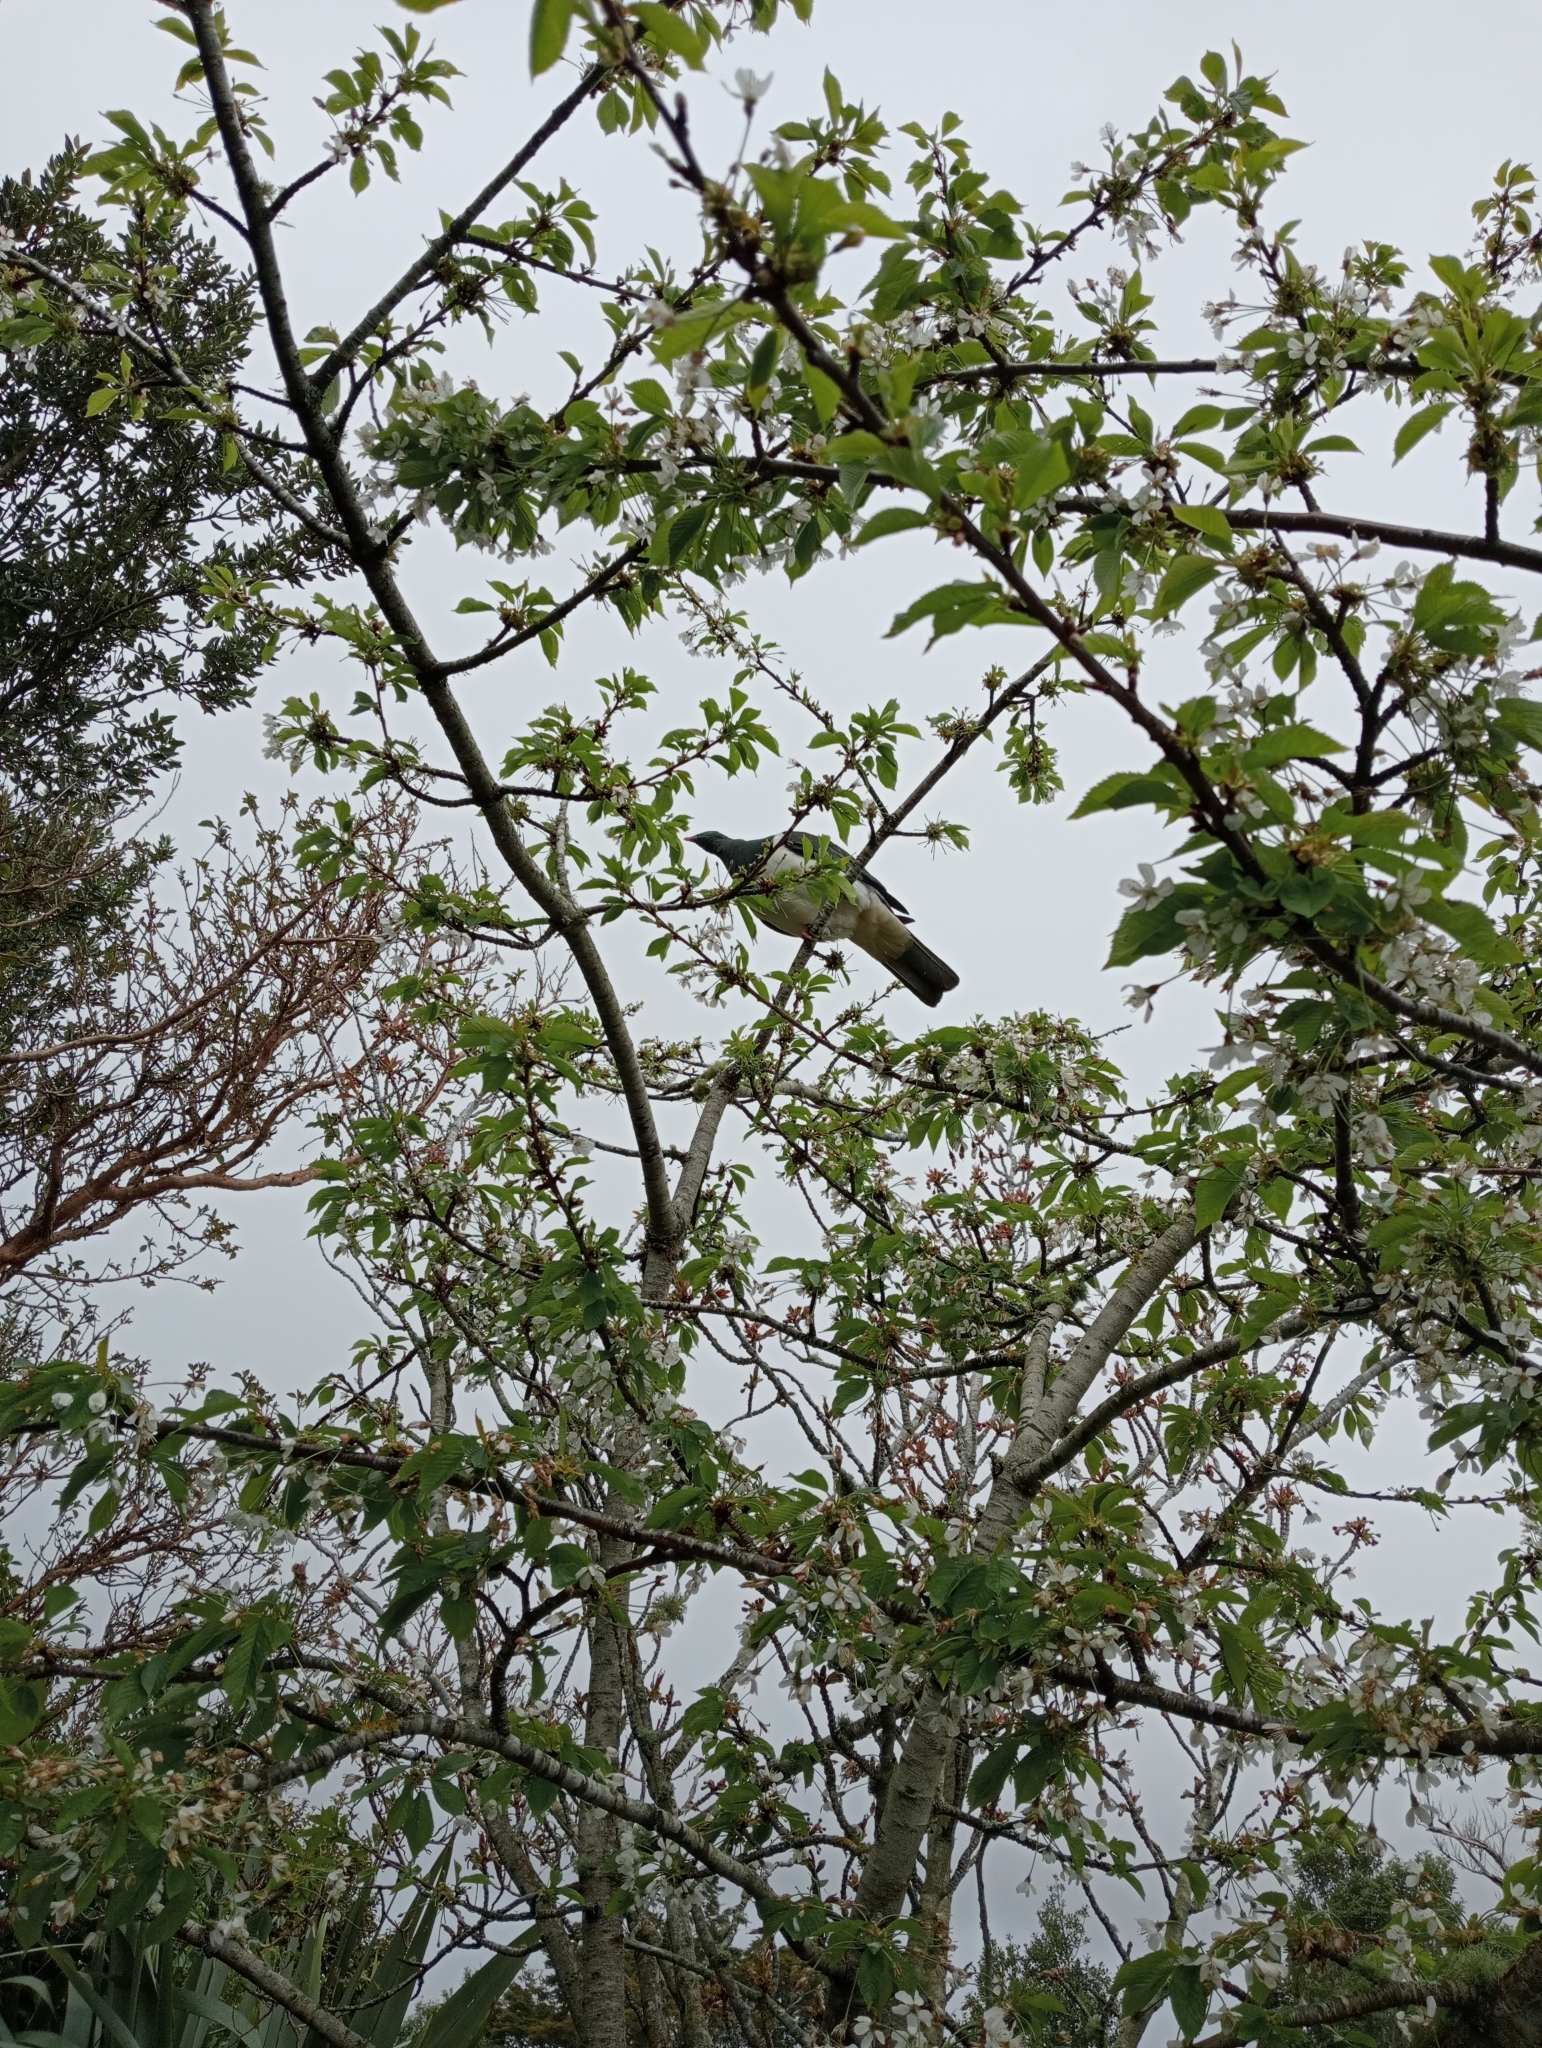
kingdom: Animalia
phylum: Chordata
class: Aves
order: Columbiformes
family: Columbidae
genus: Hemiphaga
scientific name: Hemiphaga novaeseelandiae
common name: New zealand pigeon
